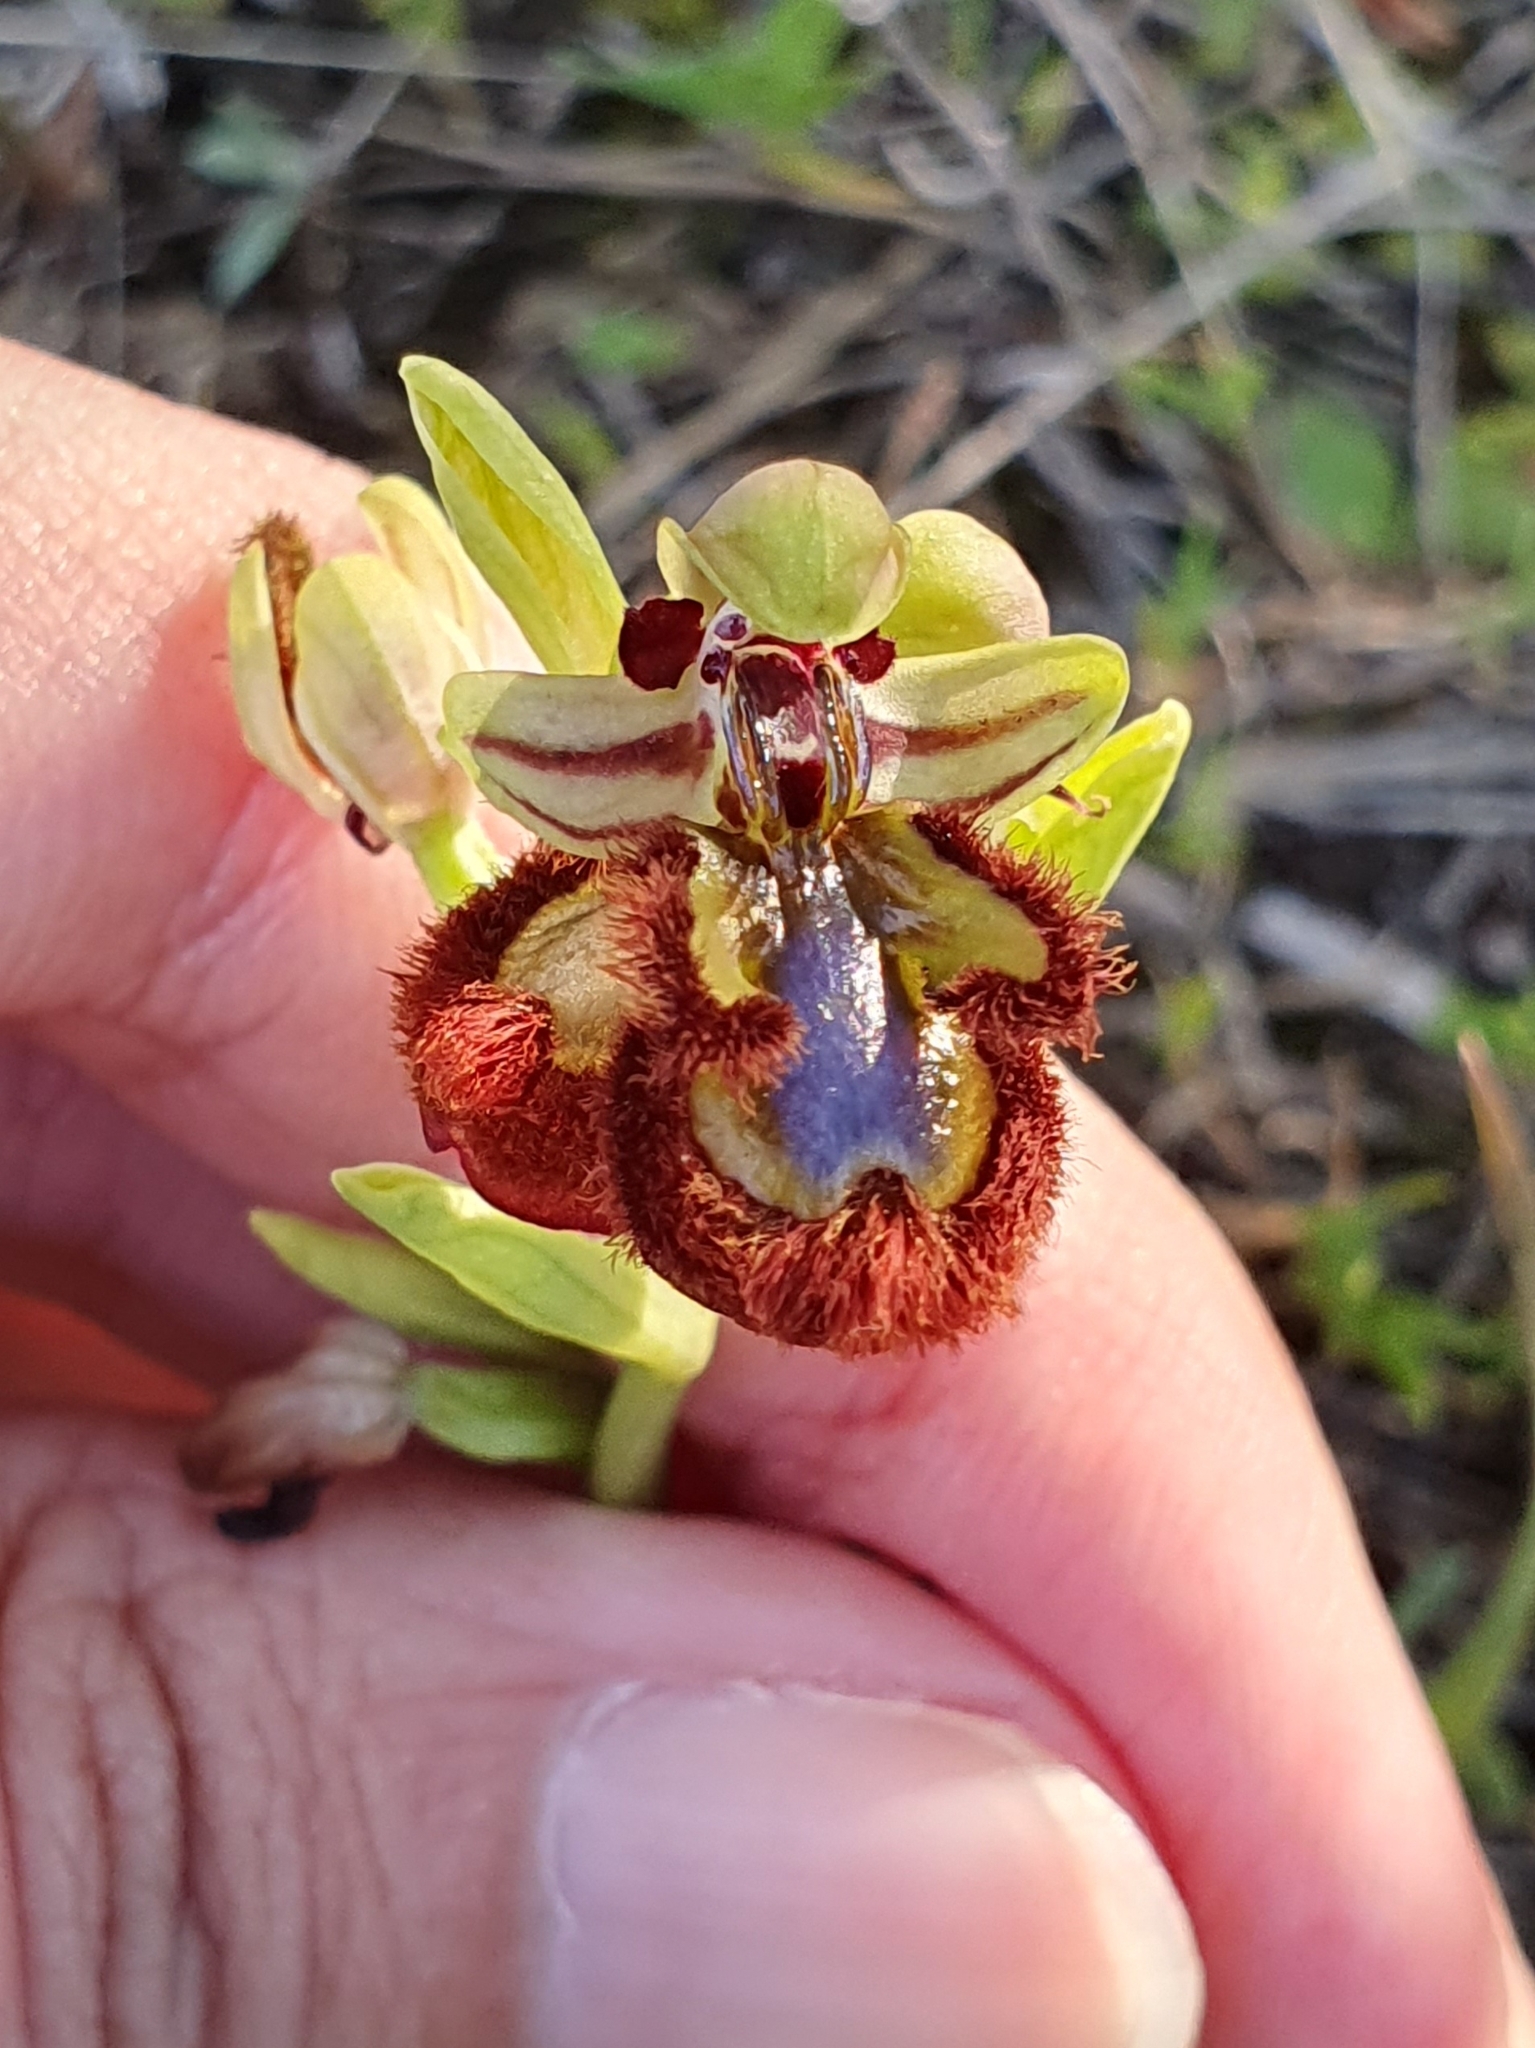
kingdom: Plantae
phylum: Tracheophyta
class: Liliopsida
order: Asparagales
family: Orchidaceae
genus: Ophrys
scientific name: Ophrys speculum
